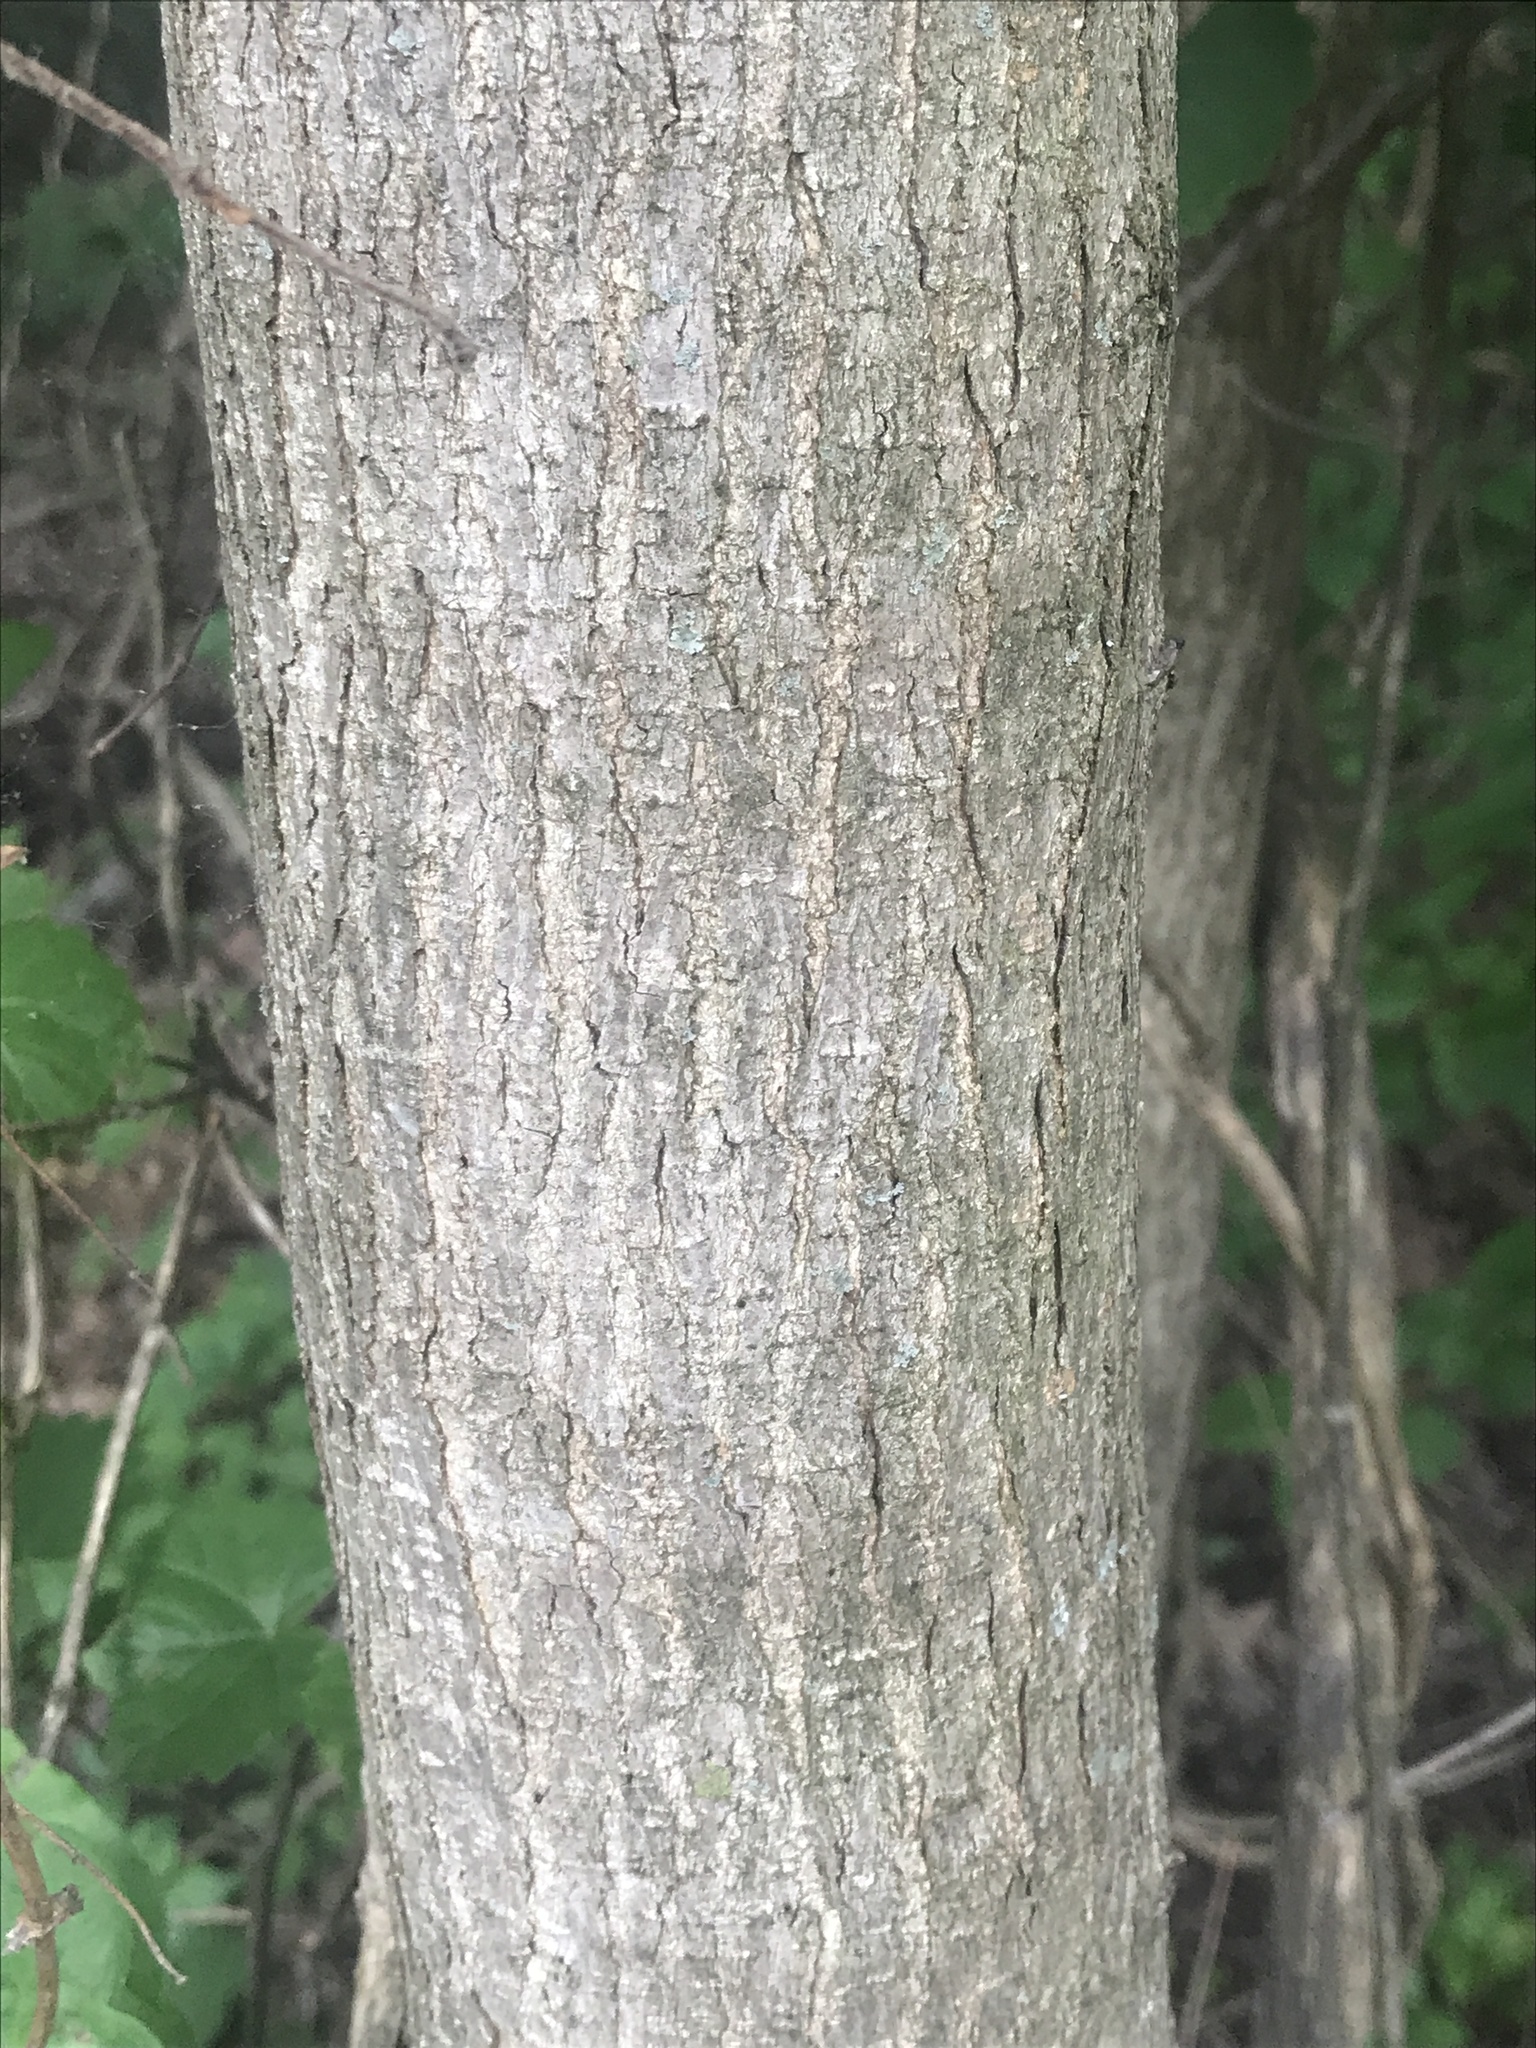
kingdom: Plantae
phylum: Tracheophyta
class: Magnoliopsida
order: Rosales
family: Moraceae
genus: Morus
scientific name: Morus rubra
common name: Red mulberry
